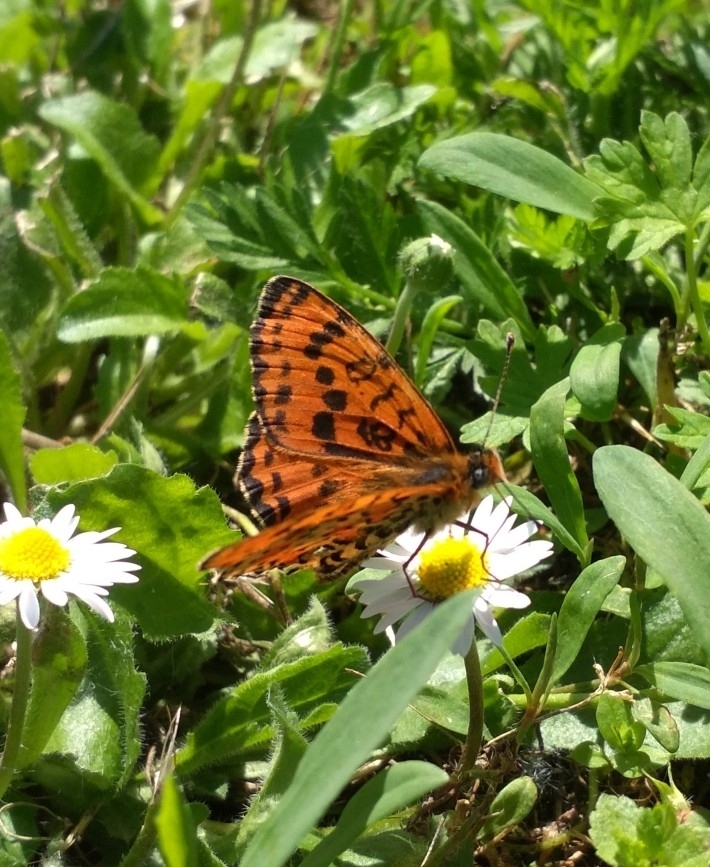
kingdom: Animalia
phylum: Arthropoda
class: Insecta
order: Lepidoptera
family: Nymphalidae
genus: Melitaea
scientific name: Melitaea didyma
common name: Spotted fritillary
